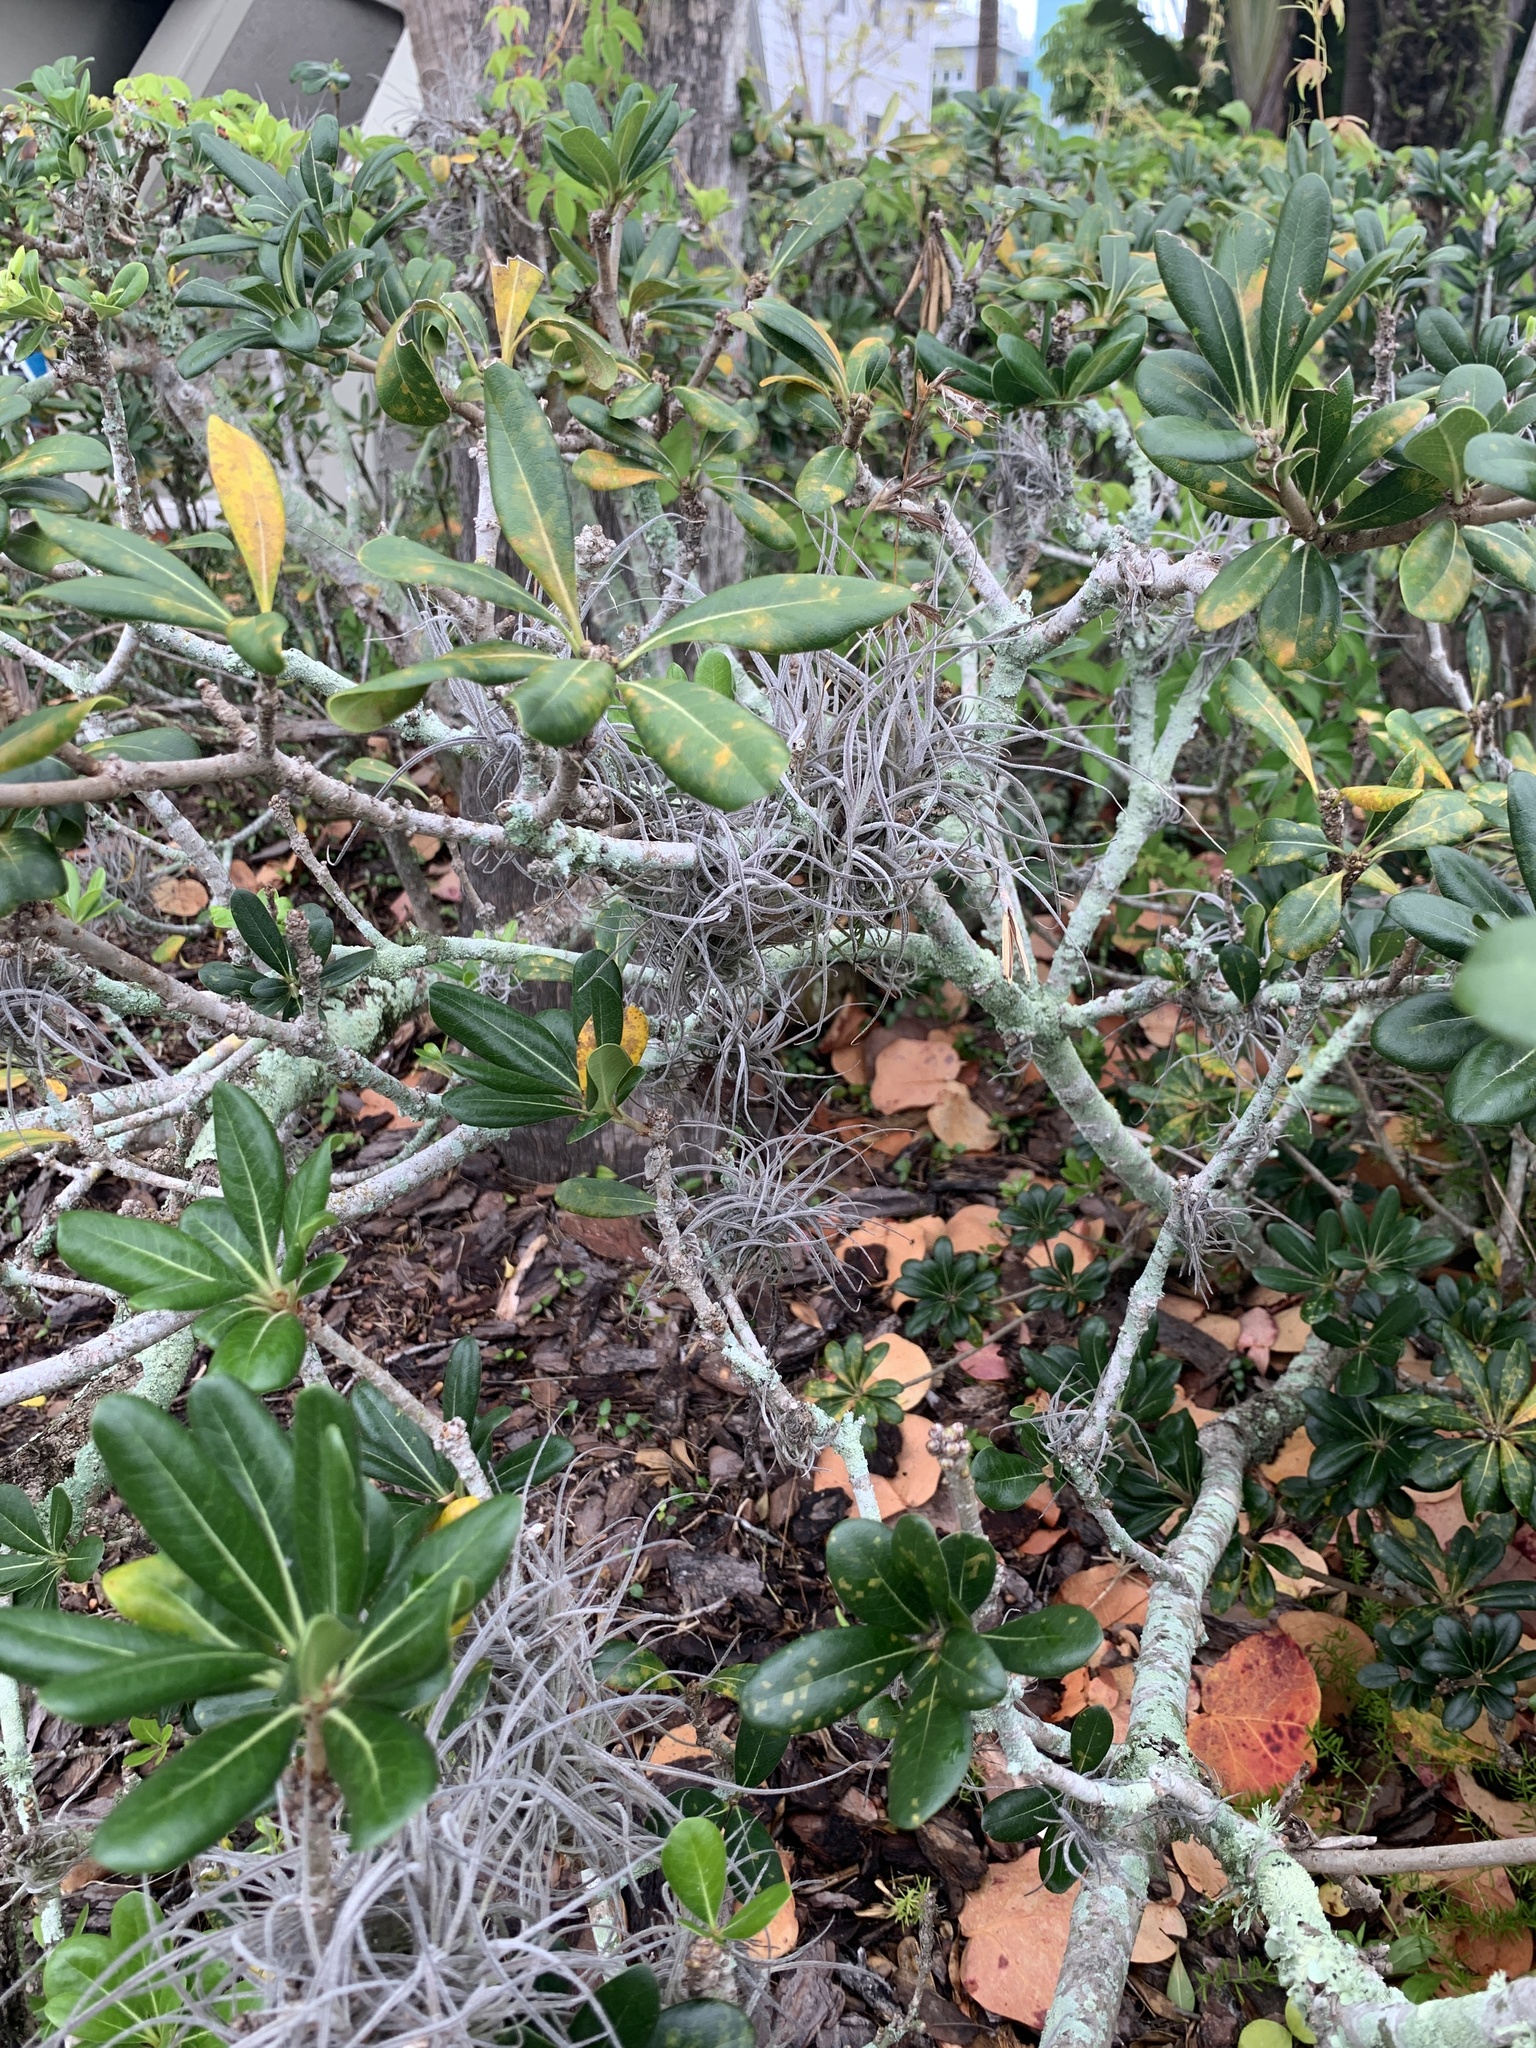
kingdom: Plantae
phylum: Tracheophyta
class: Liliopsida
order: Poales
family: Bromeliaceae
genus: Tillandsia
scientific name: Tillandsia recurvata
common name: Small ballmoss
